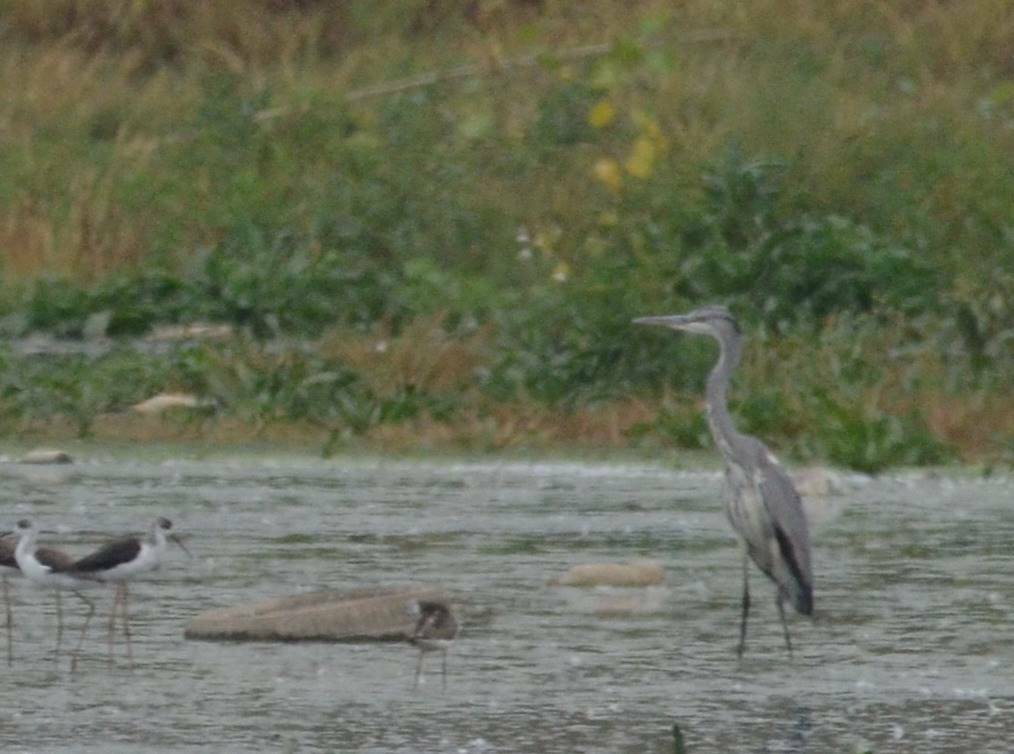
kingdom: Animalia
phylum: Chordata
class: Aves
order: Pelecaniformes
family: Ardeidae
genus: Ardea
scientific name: Ardea cinerea
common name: Grey heron
